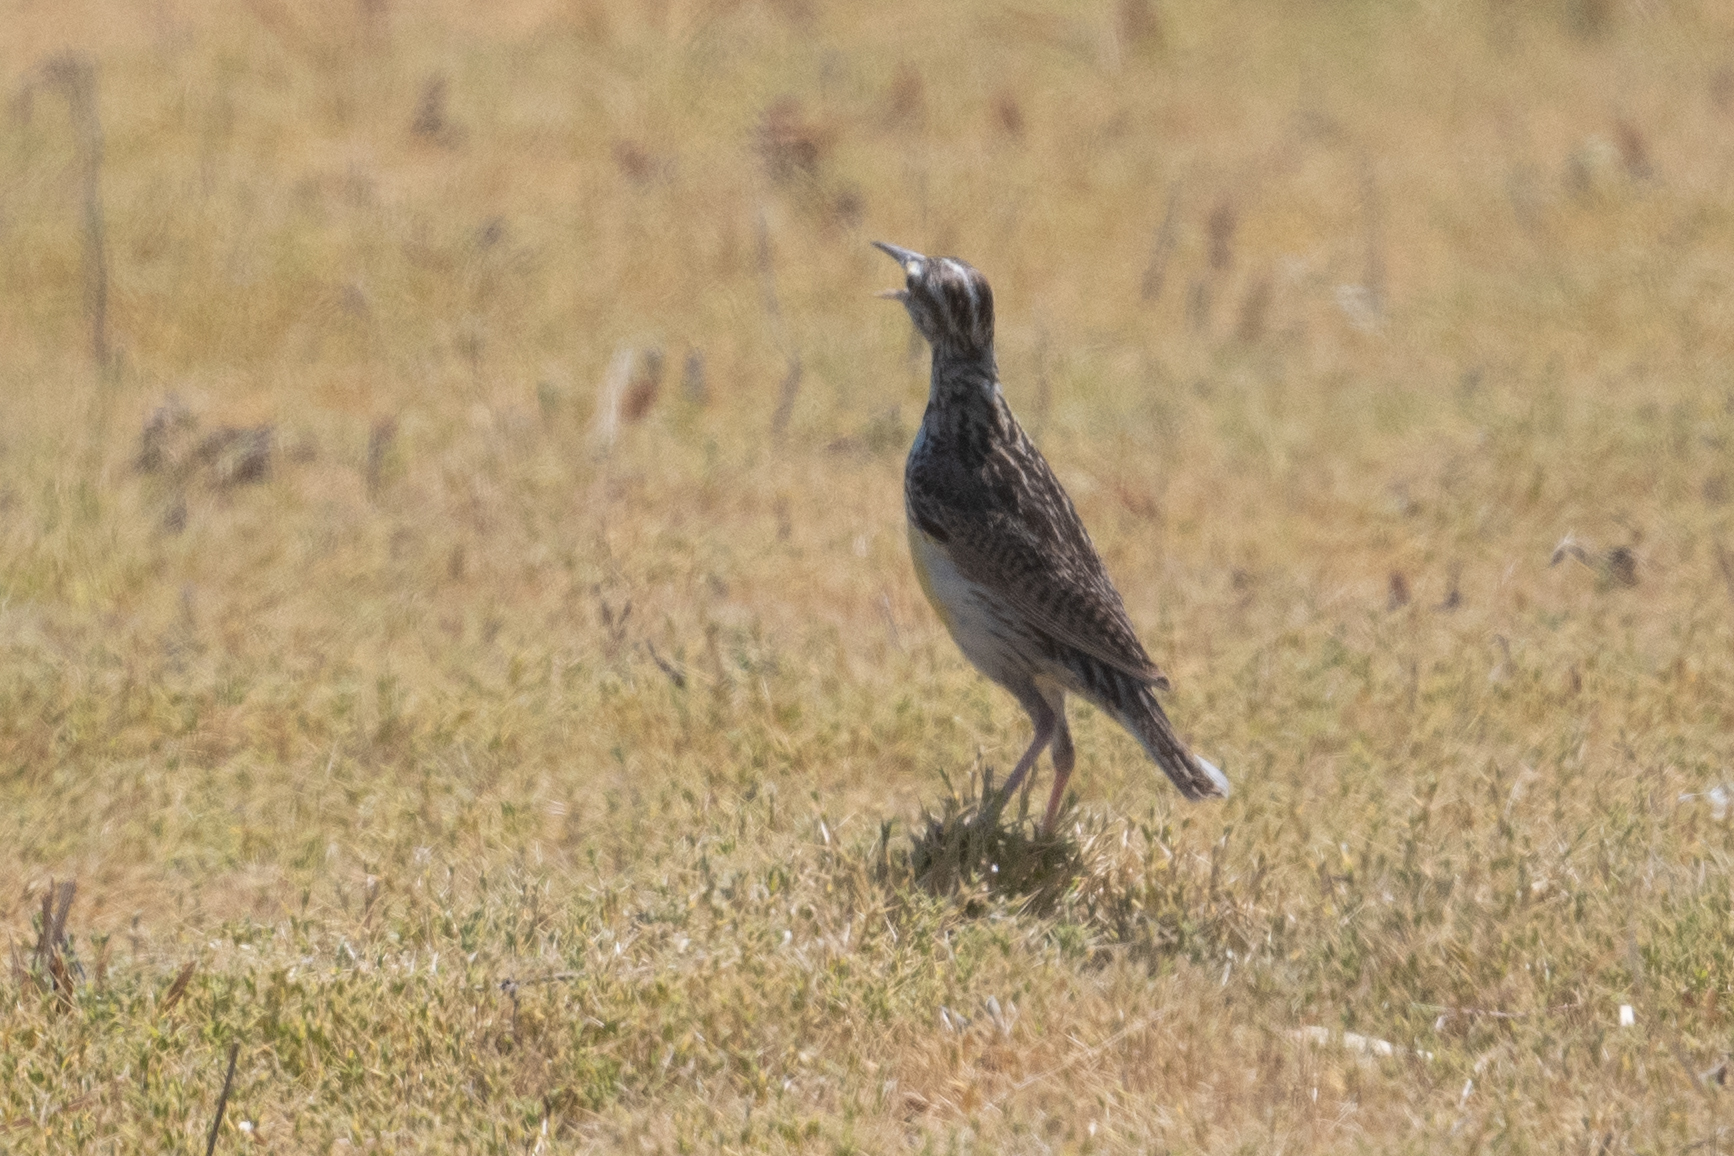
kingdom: Animalia
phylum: Chordata
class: Aves
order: Passeriformes
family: Icteridae
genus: Sturnella
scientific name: Sturnella neglecta
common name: Western meadowlark
